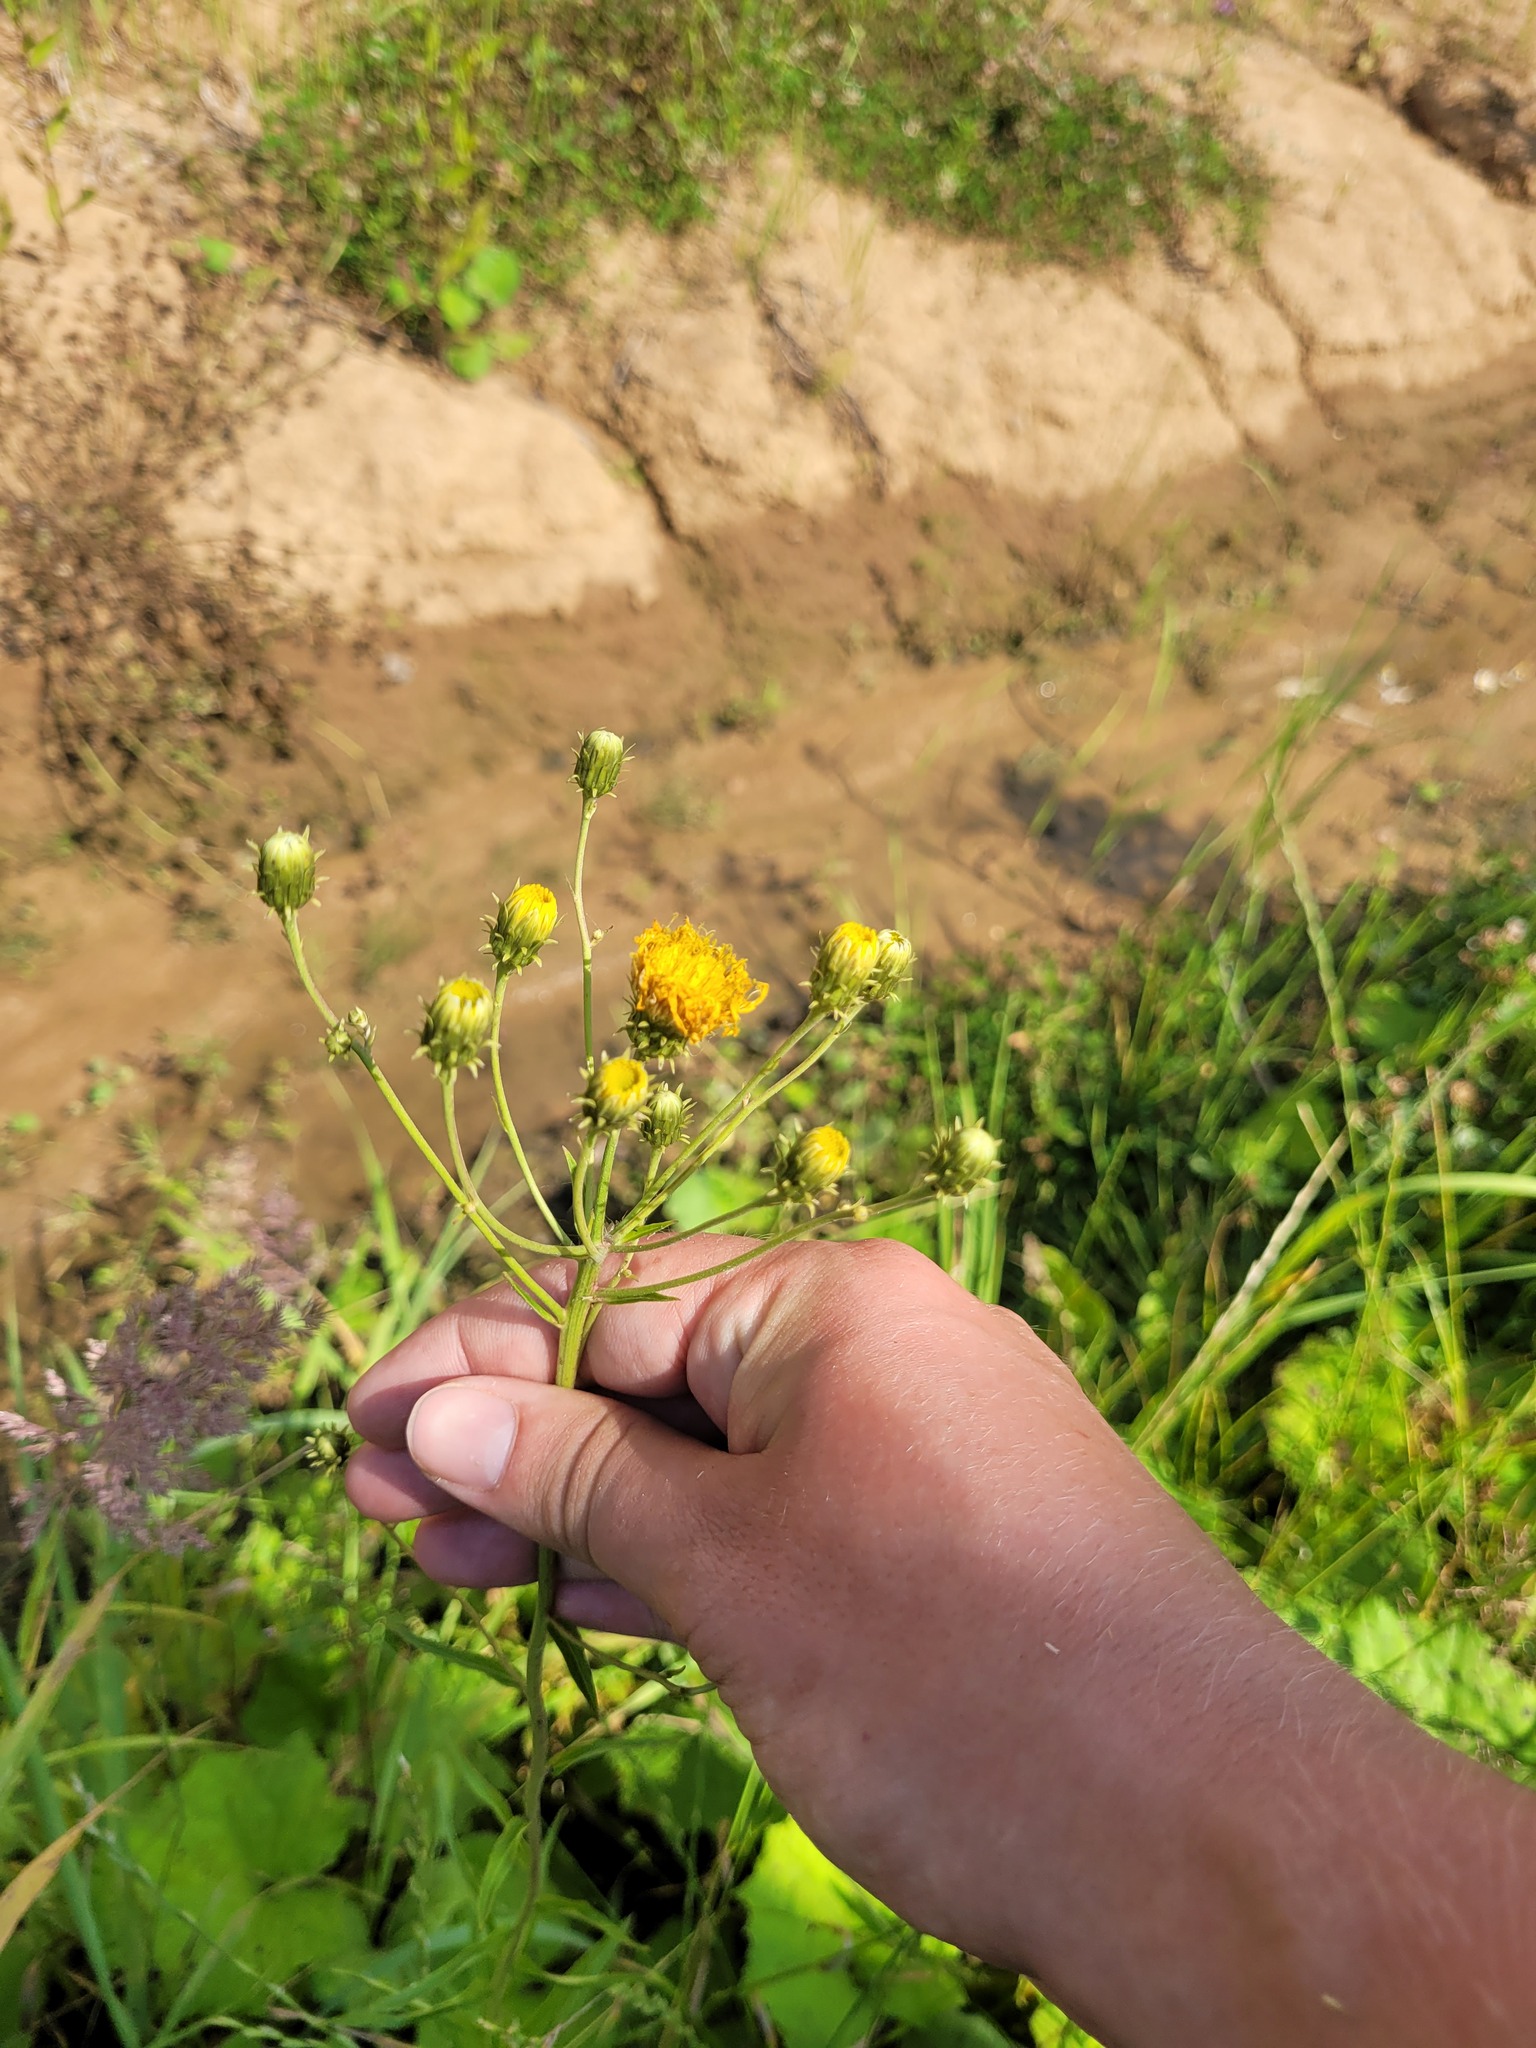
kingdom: Plantae
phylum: Tracheophyta
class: Magnoliopsida
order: Asterales
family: Asteraceae
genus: Hieracium
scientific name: Hieracium umbellatum
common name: Northern hawkweed
